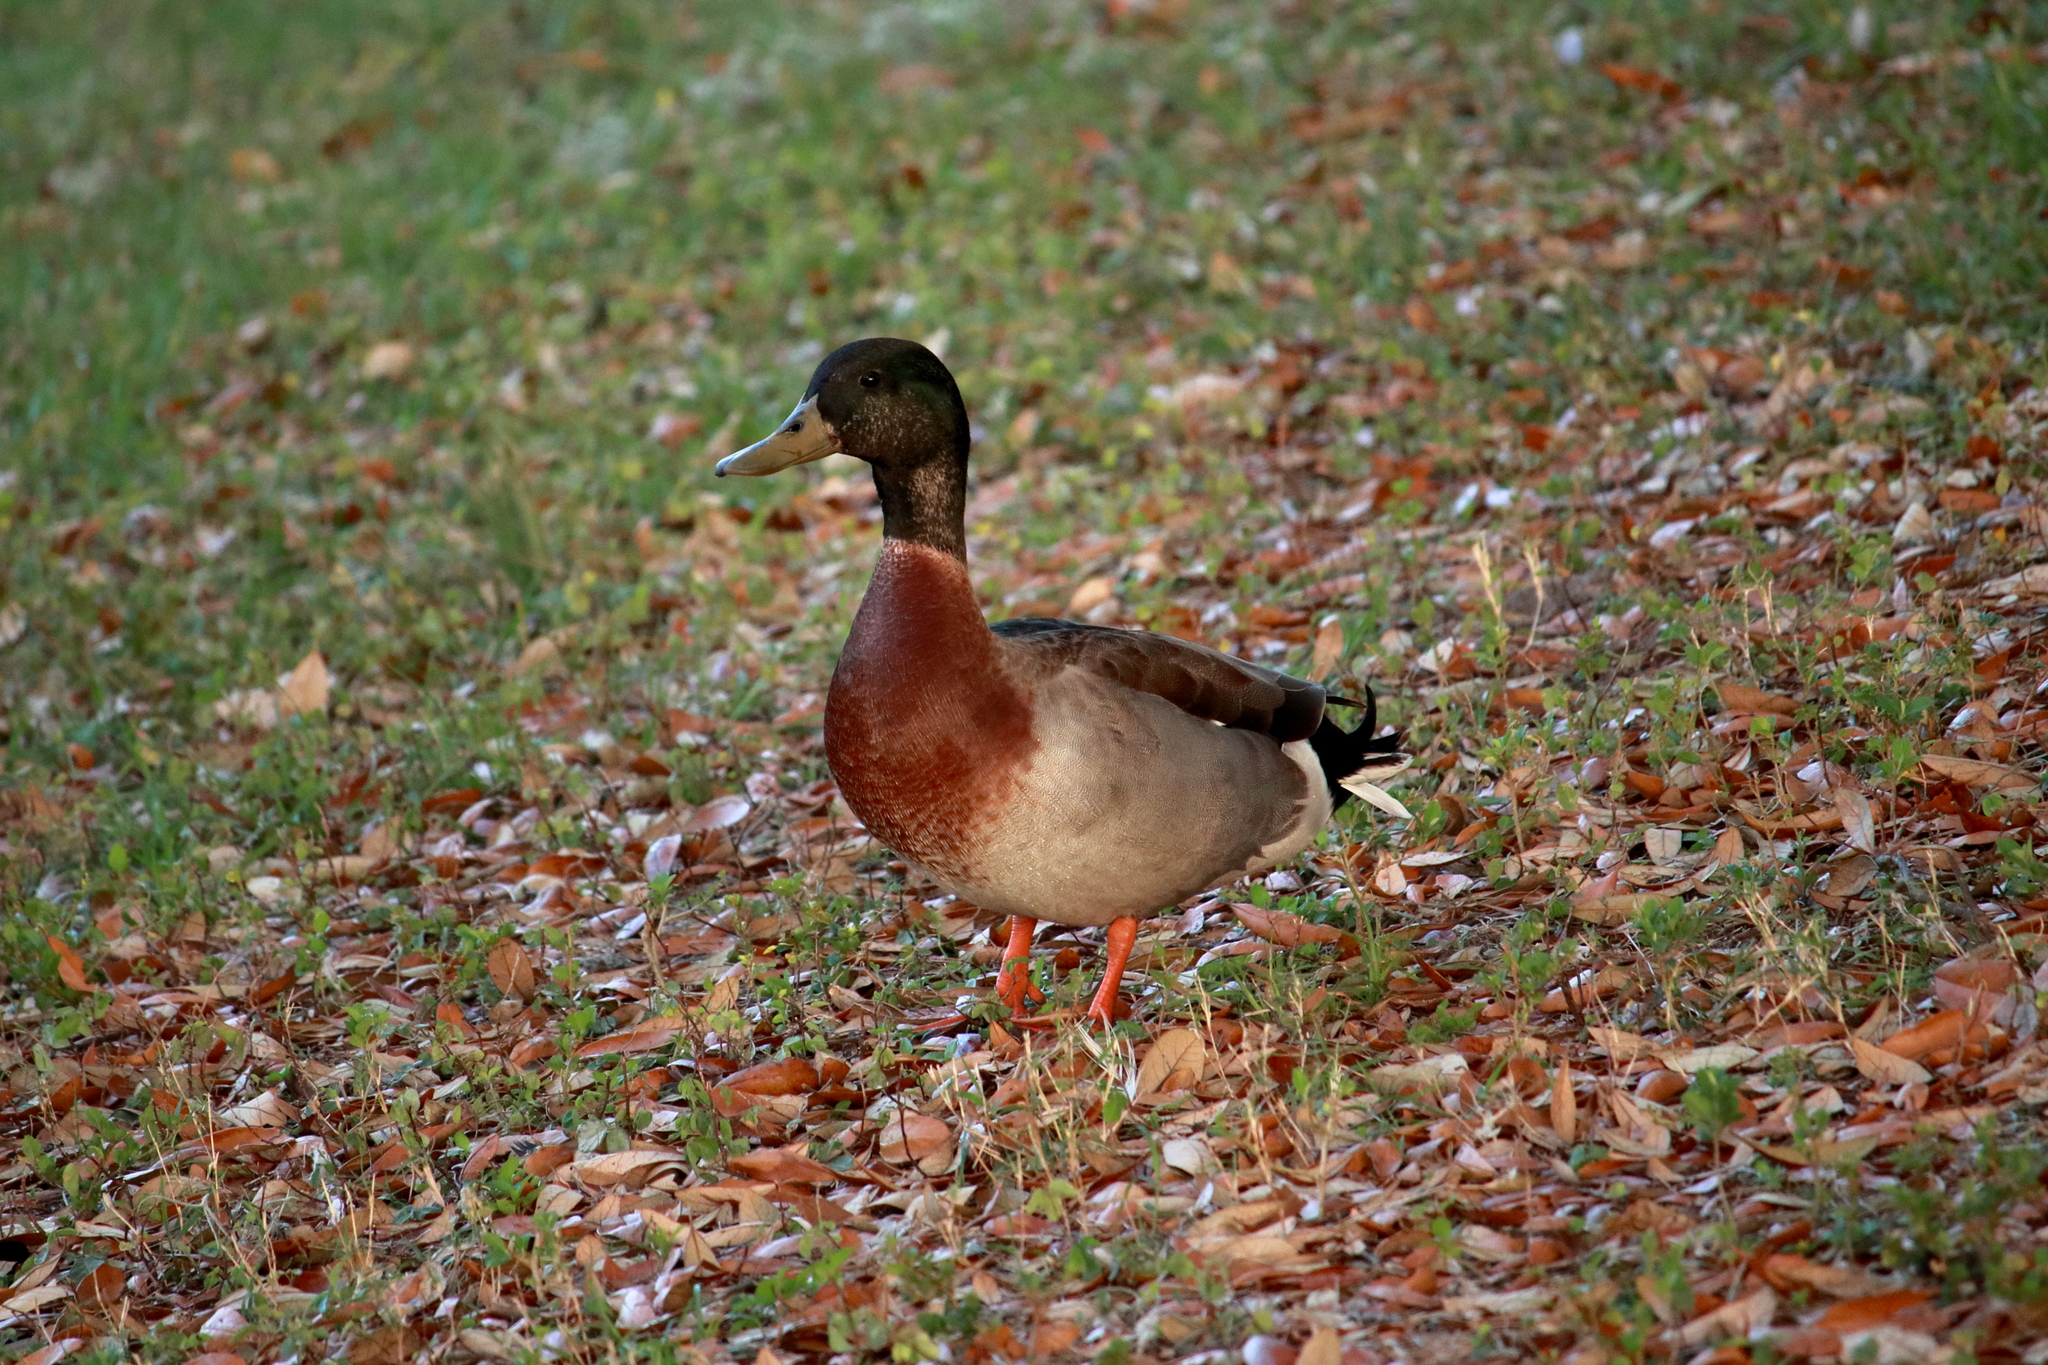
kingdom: Animalia
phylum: Chordata
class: Aves
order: Anseriformes
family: Anatidae
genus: Anas
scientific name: Anas platyrhynchos
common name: Mallard
